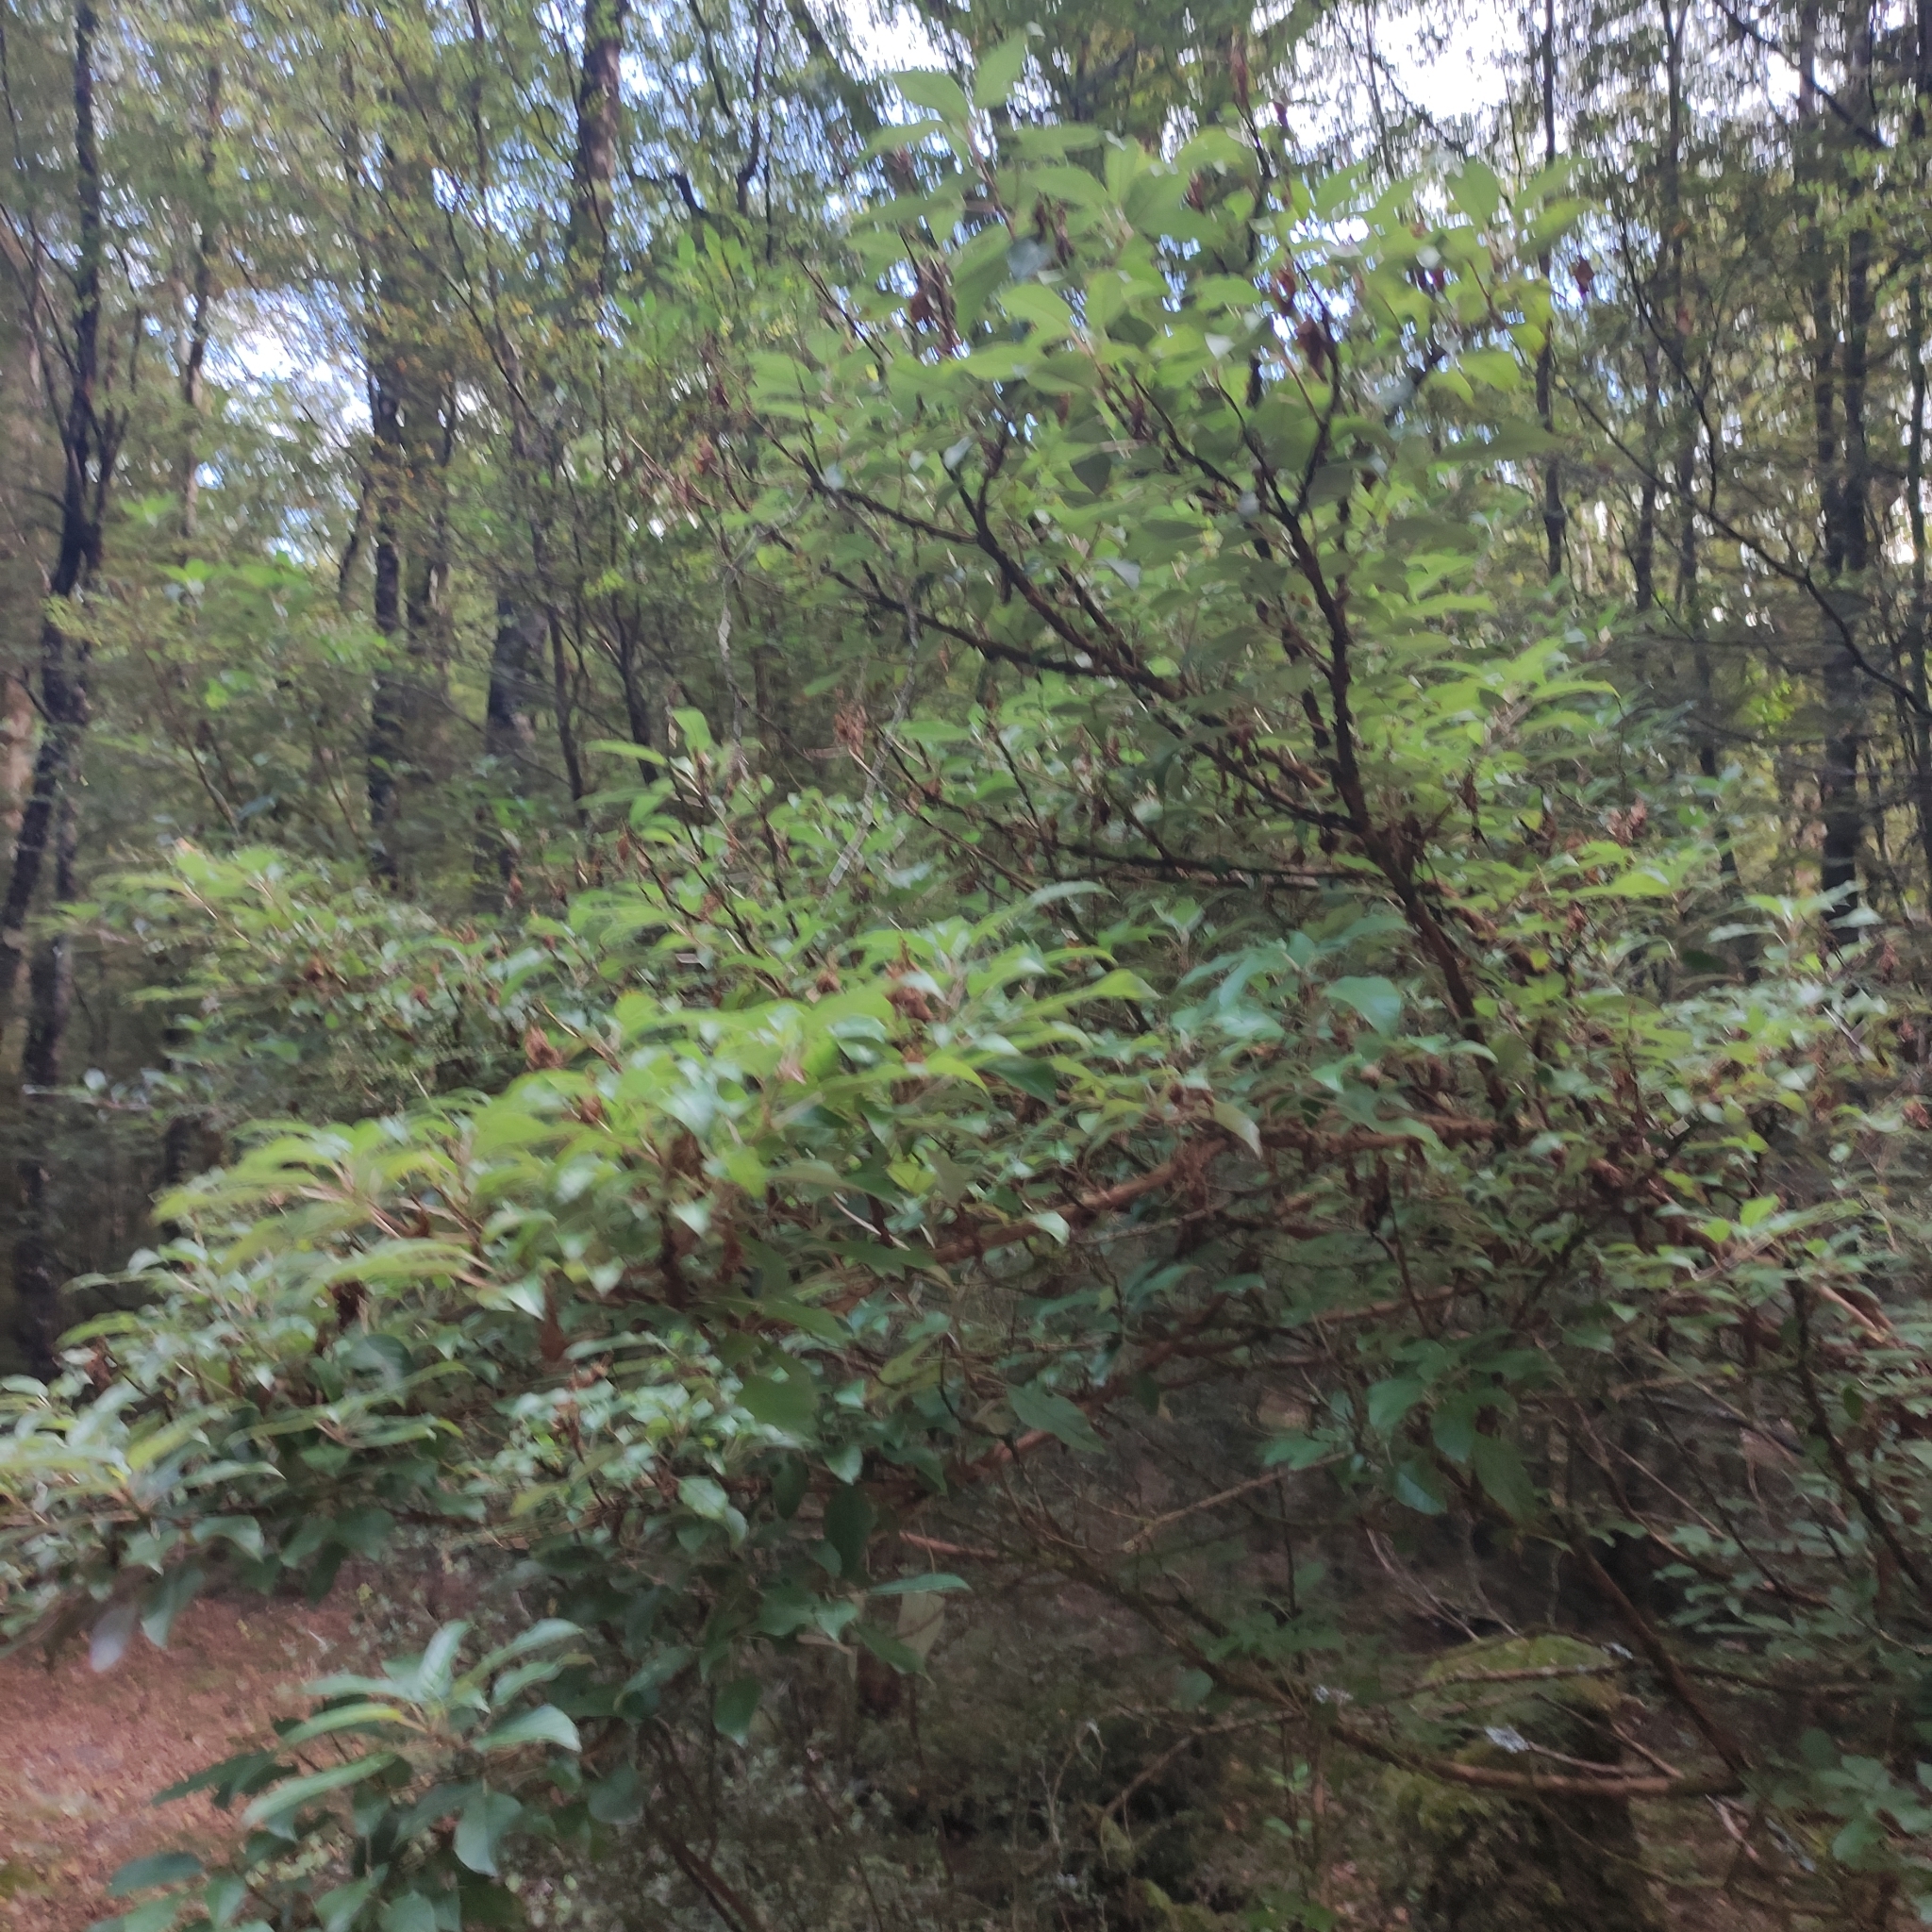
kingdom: Plantae
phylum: Tracheophyta
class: Magnoliopsida
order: Myrtales
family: Onagraceae
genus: Fuchsia
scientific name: Fuchsia excorticata
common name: Tree fuchsia
